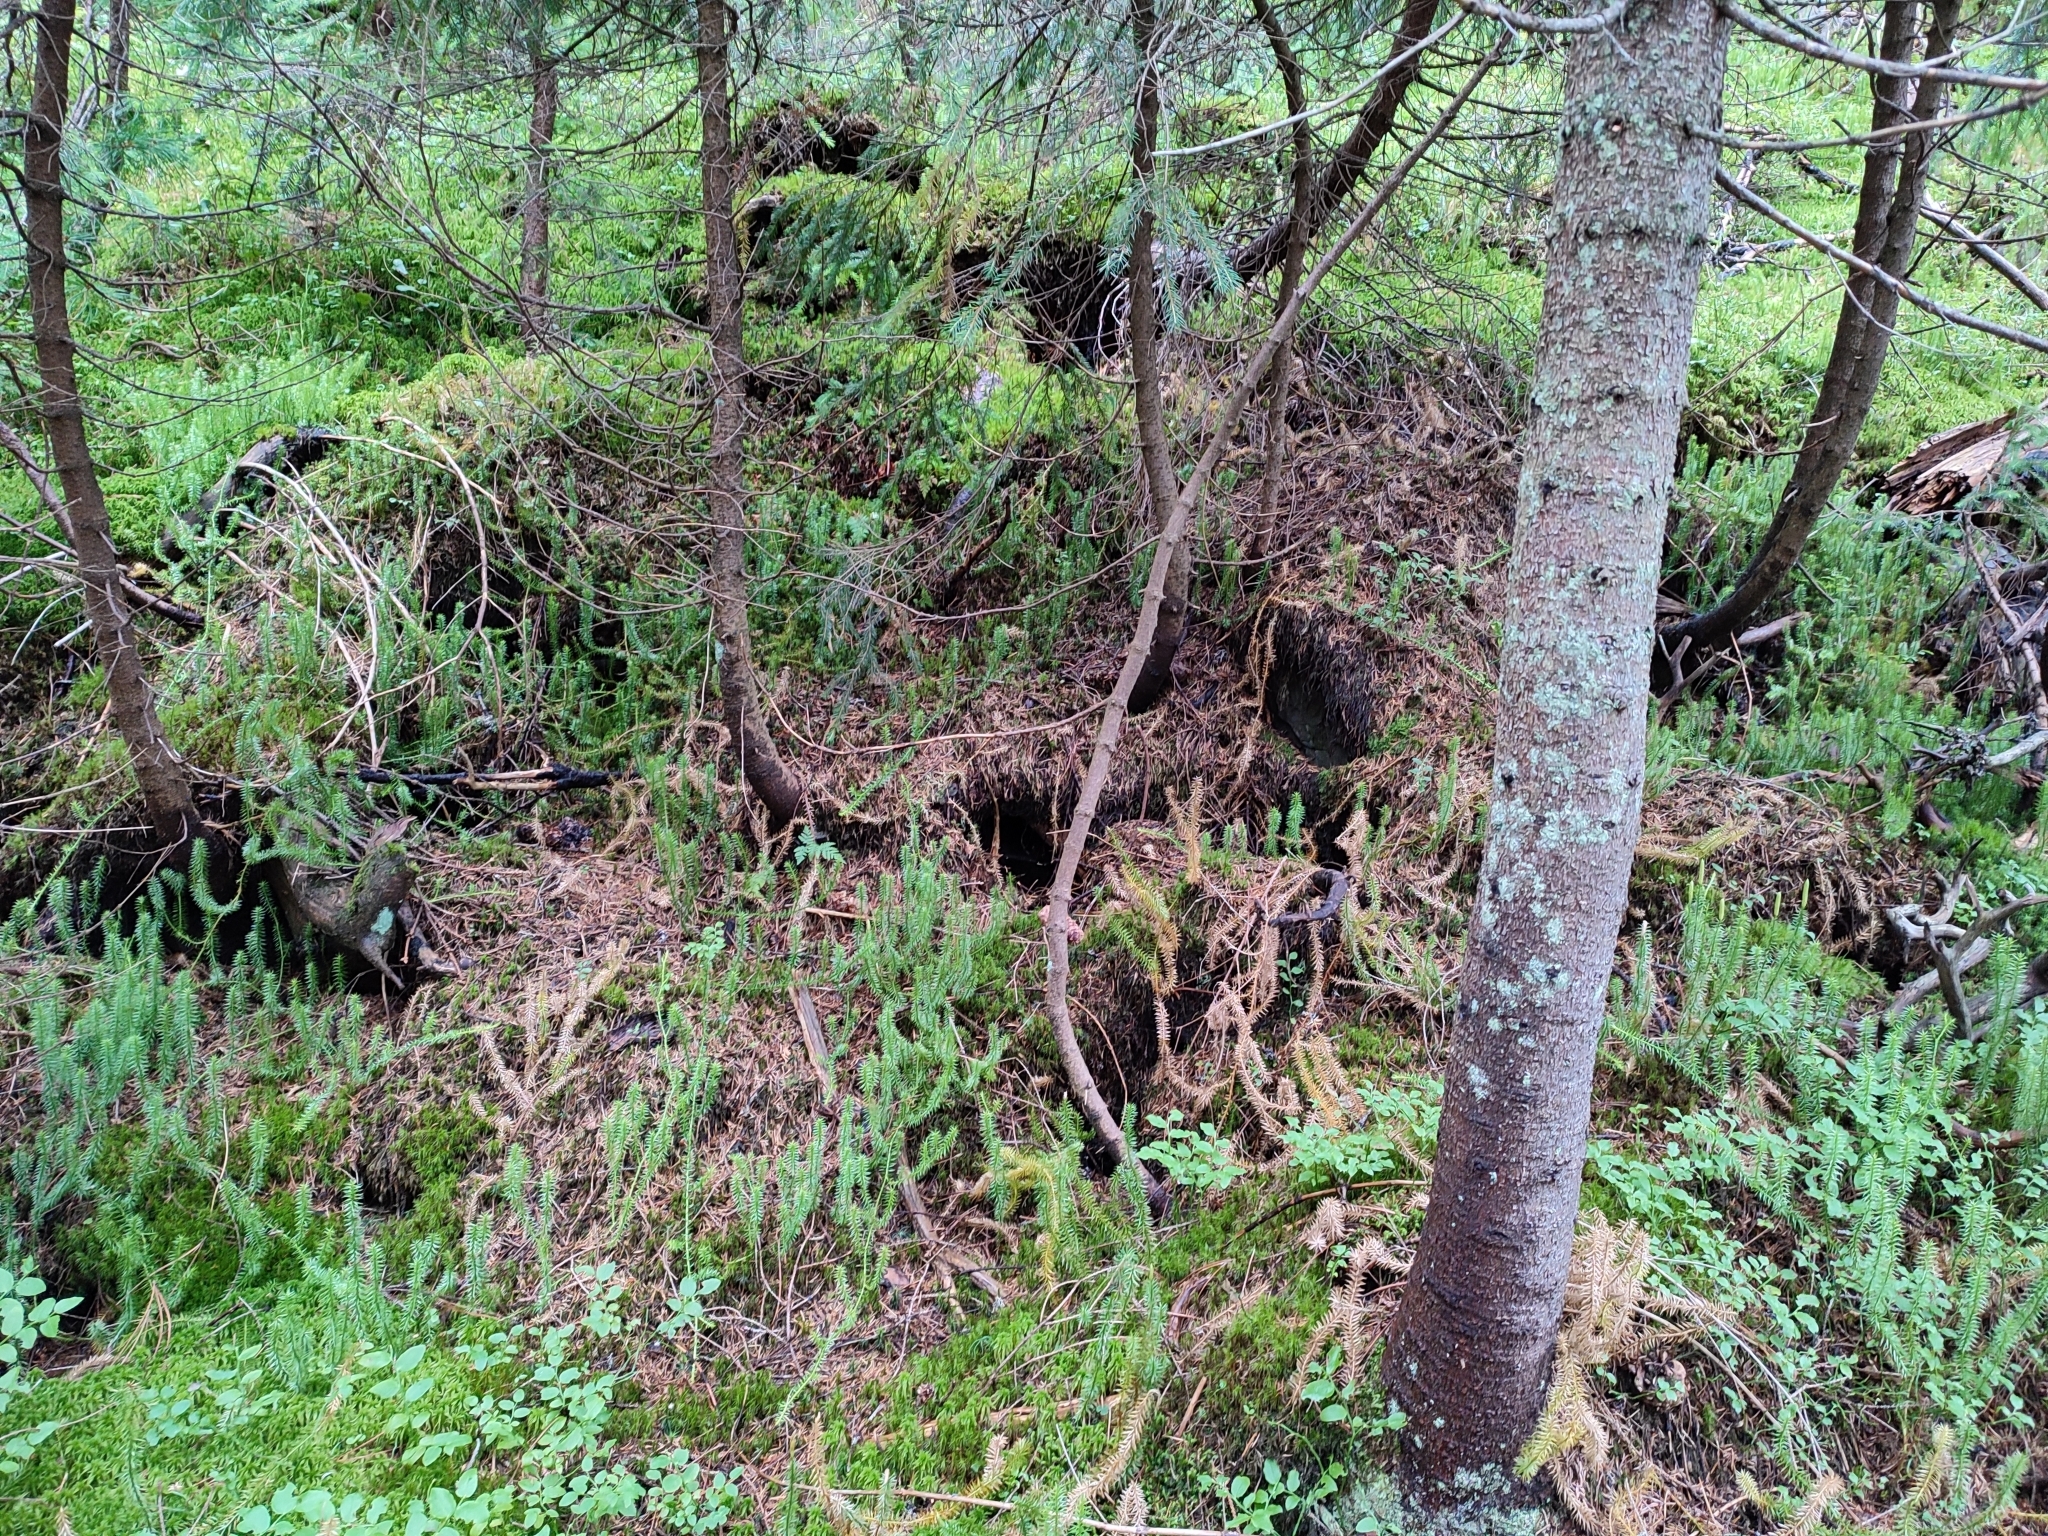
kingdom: Plantae
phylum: Tracheophyta
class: Lycopodiopsida
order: Lycopodiales
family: Lycopodiaceae
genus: Spinulum
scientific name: Spinulum annotinum
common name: Interrupted club-moss
